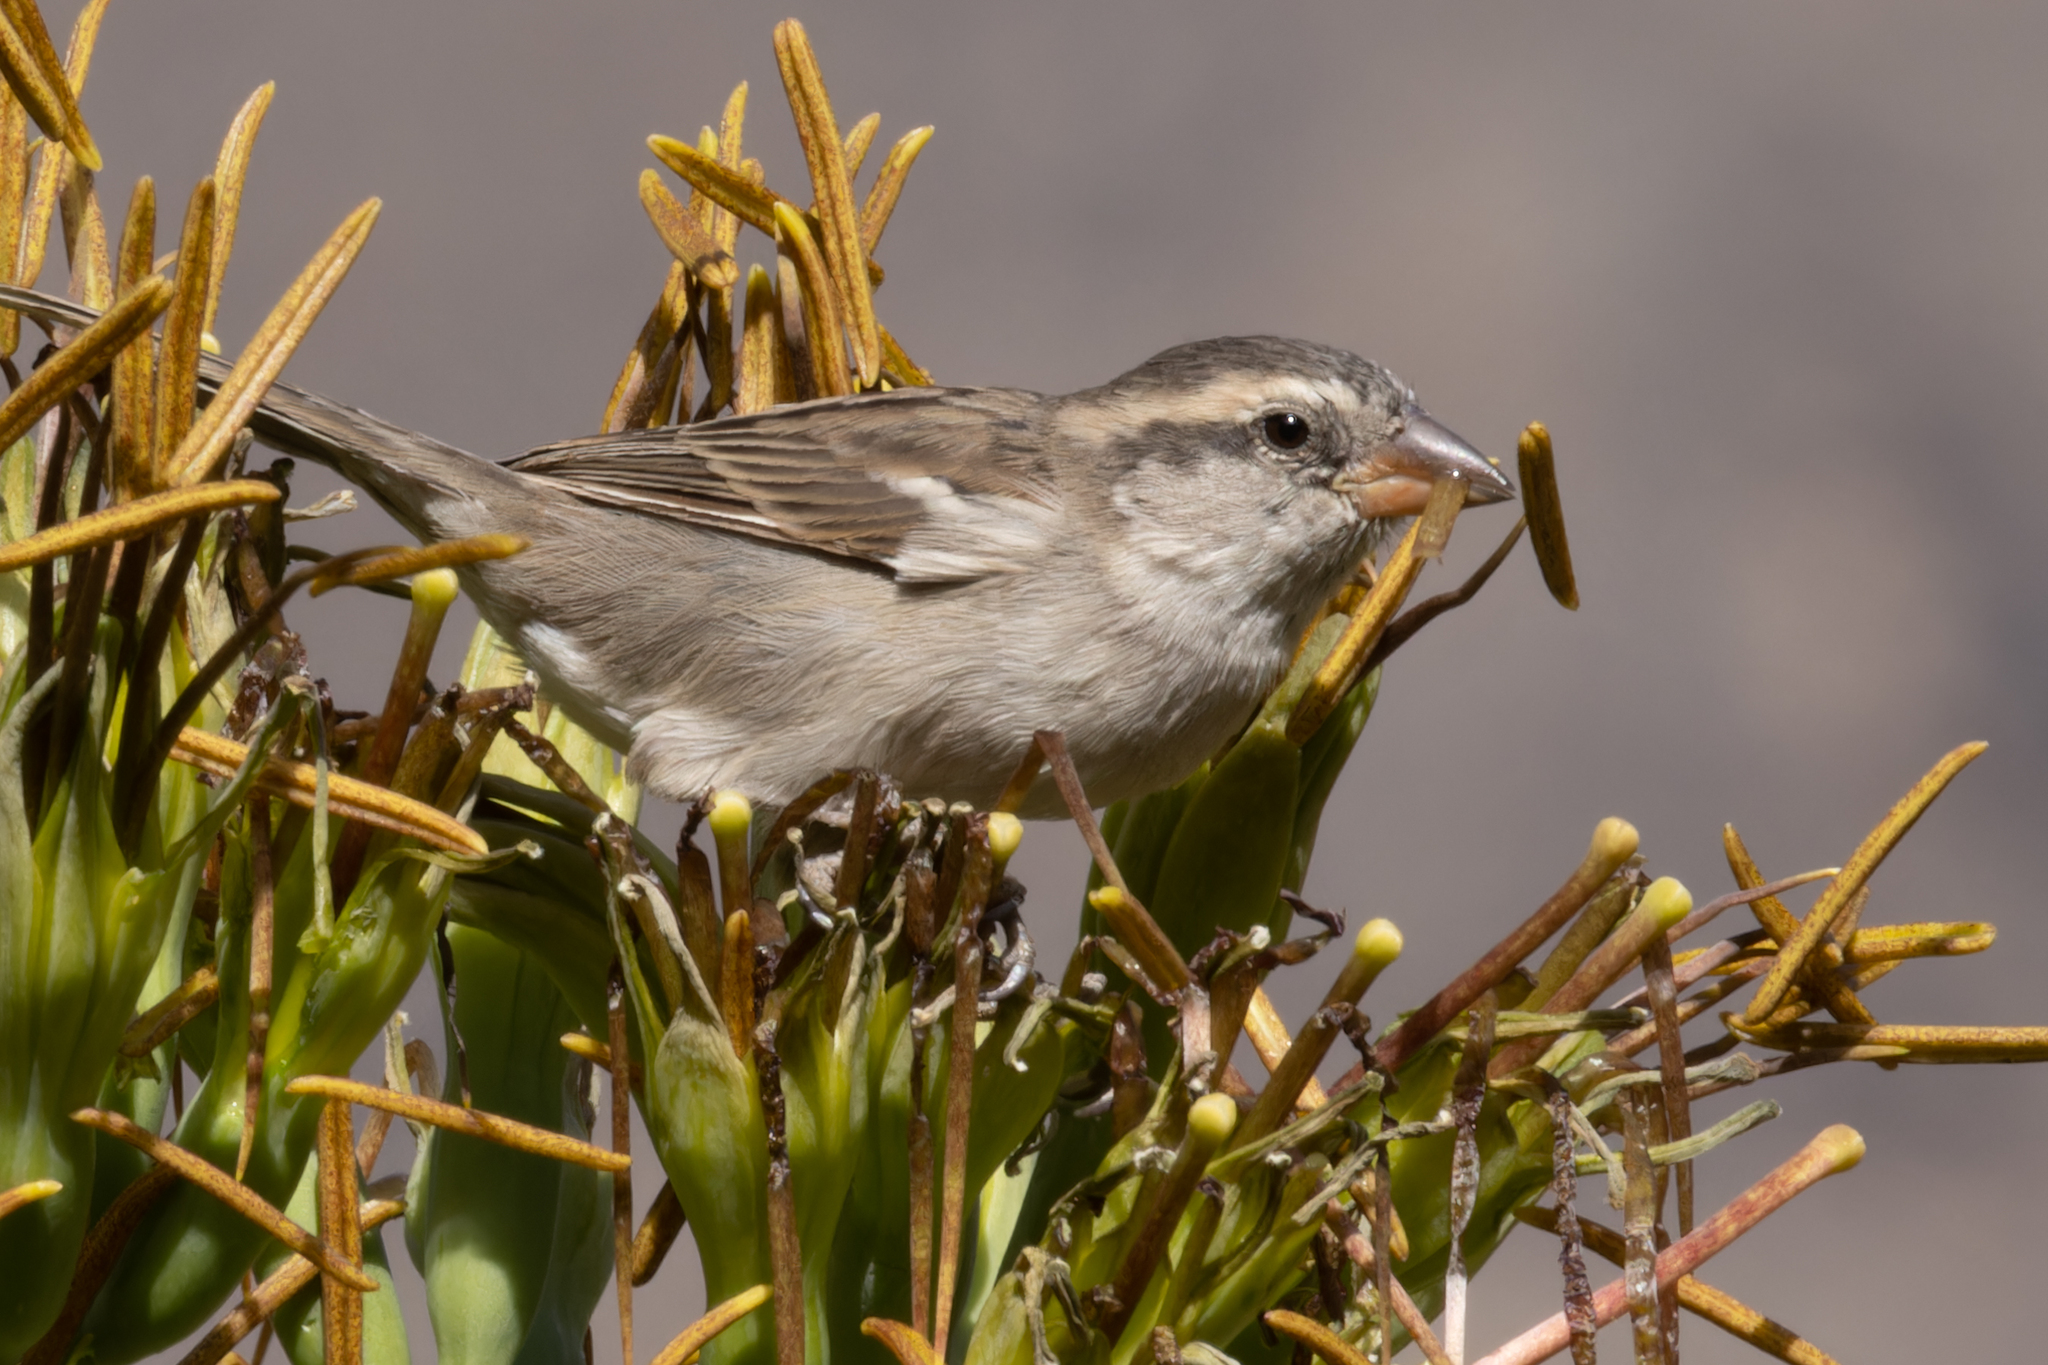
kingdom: Animalia
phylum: Chordata
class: Aves
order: Passeriformes
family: Passeridae
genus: Passer
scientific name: Passer iagoensis
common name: Iago sparrow
